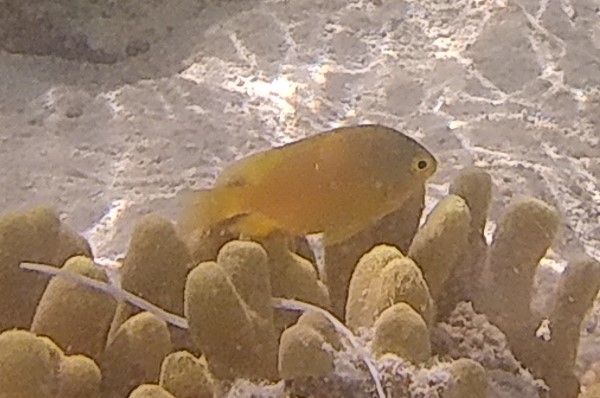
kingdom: Animalia
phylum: Chordata
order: Perciformes
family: Pomacentridae
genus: Pomacentrus
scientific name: Pomacentrus moluccensis
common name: Lemon damsel
